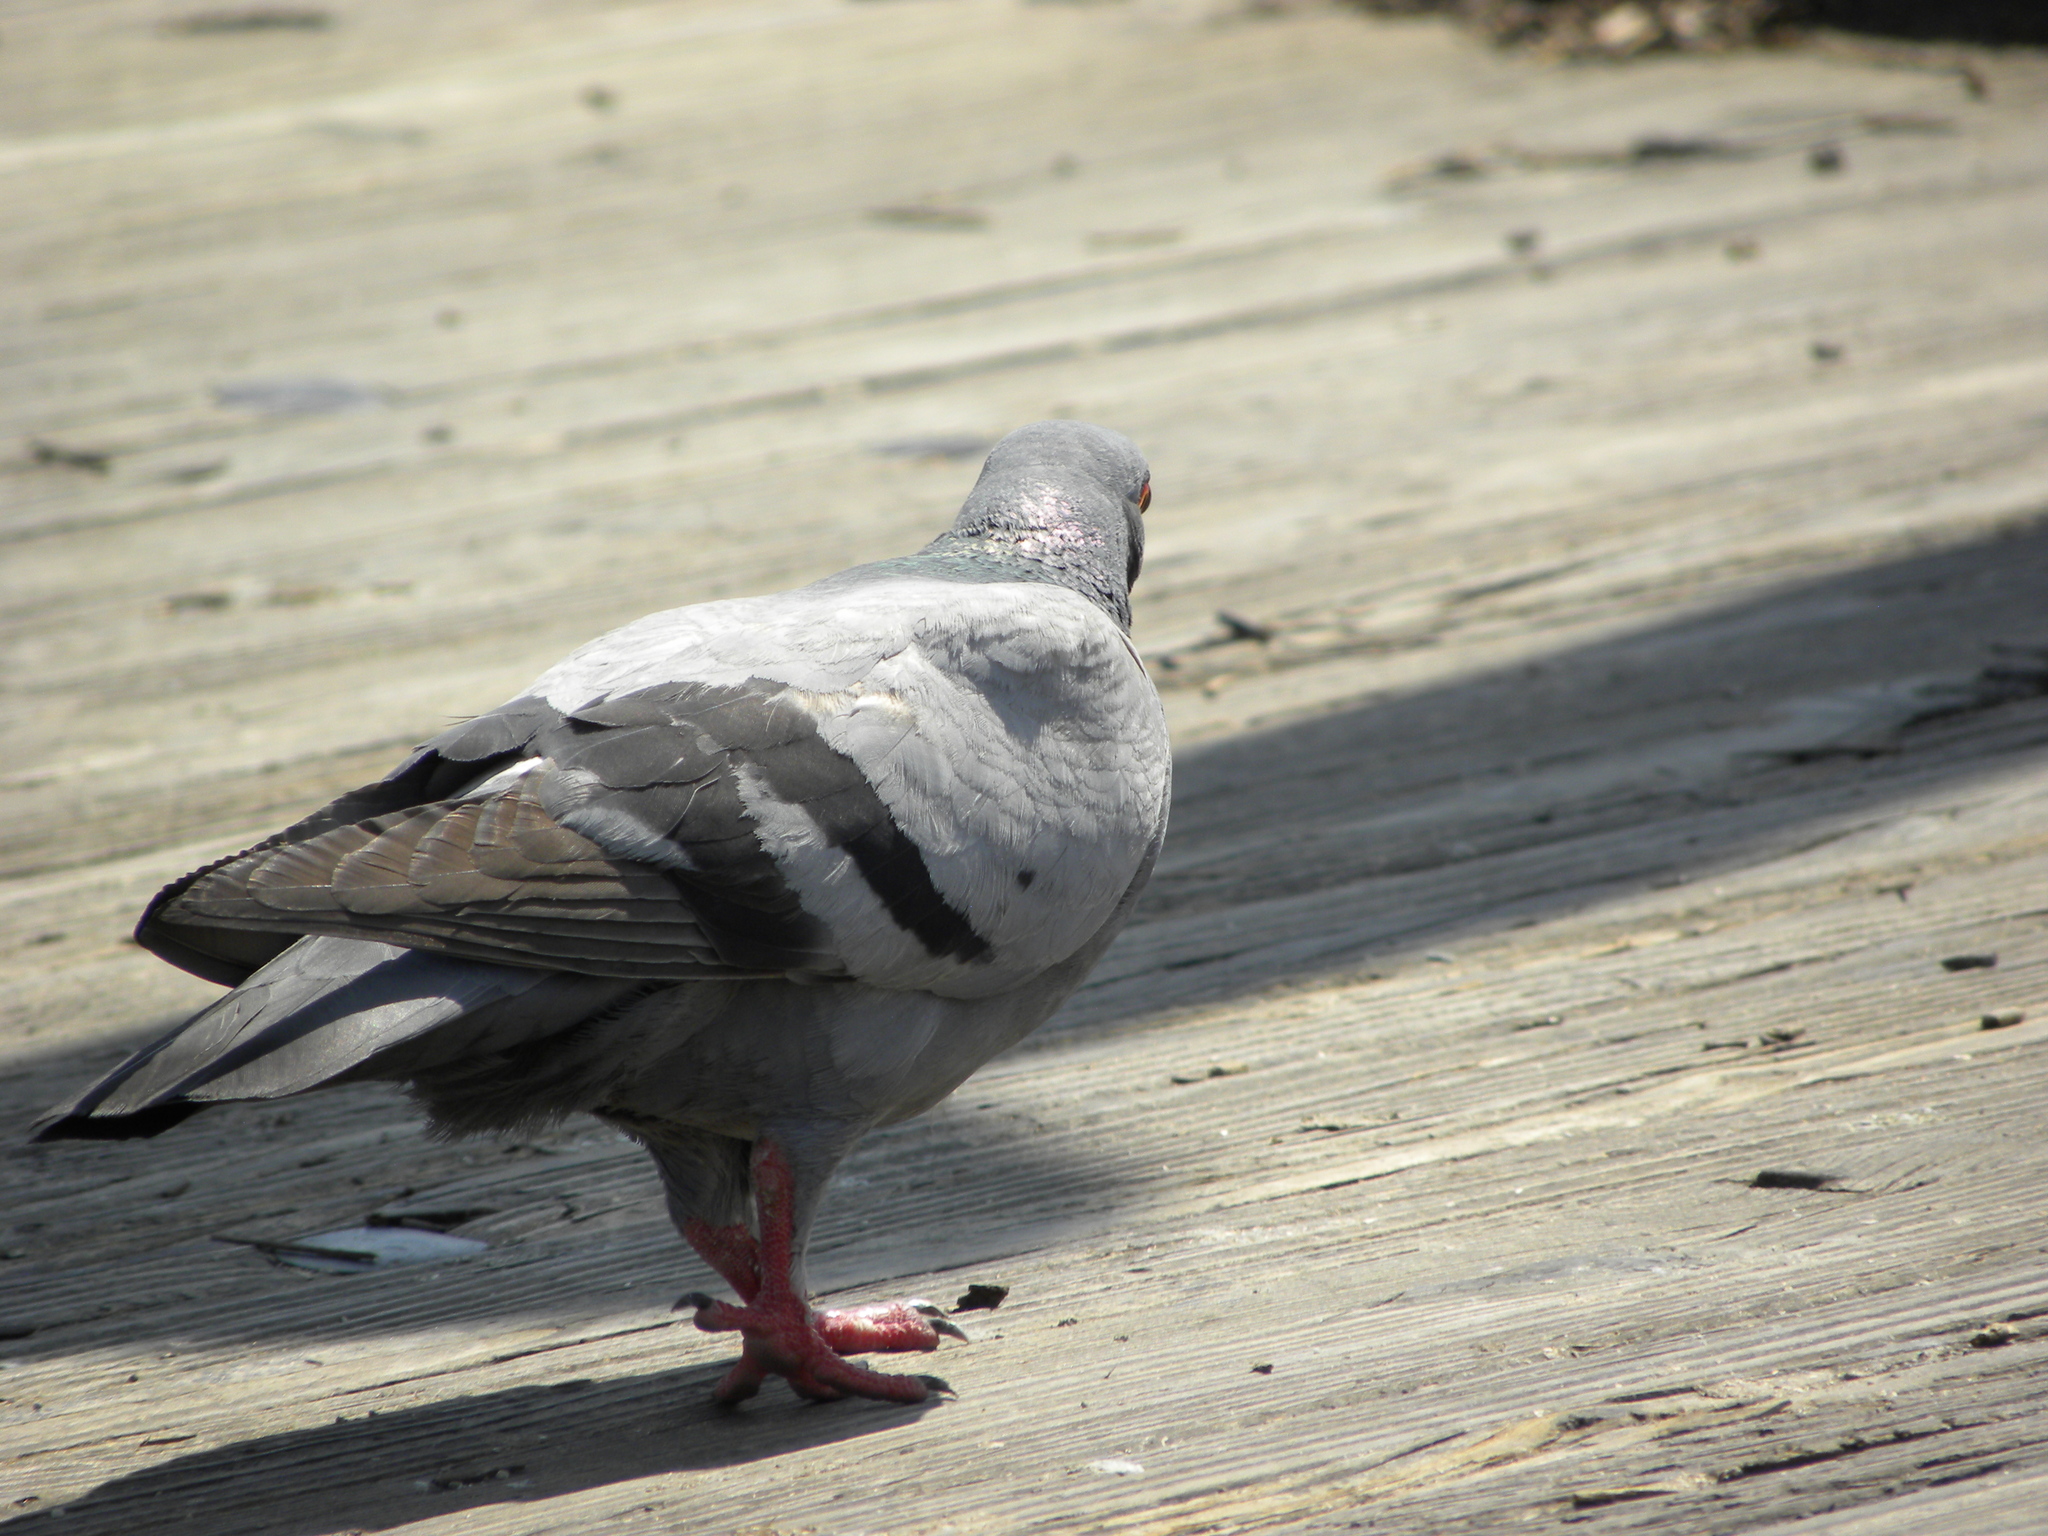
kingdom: Animalia
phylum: Chordata
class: Aves
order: Columbiformes
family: Columbidae
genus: Columba
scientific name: Columba livia
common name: Rock pigeon
